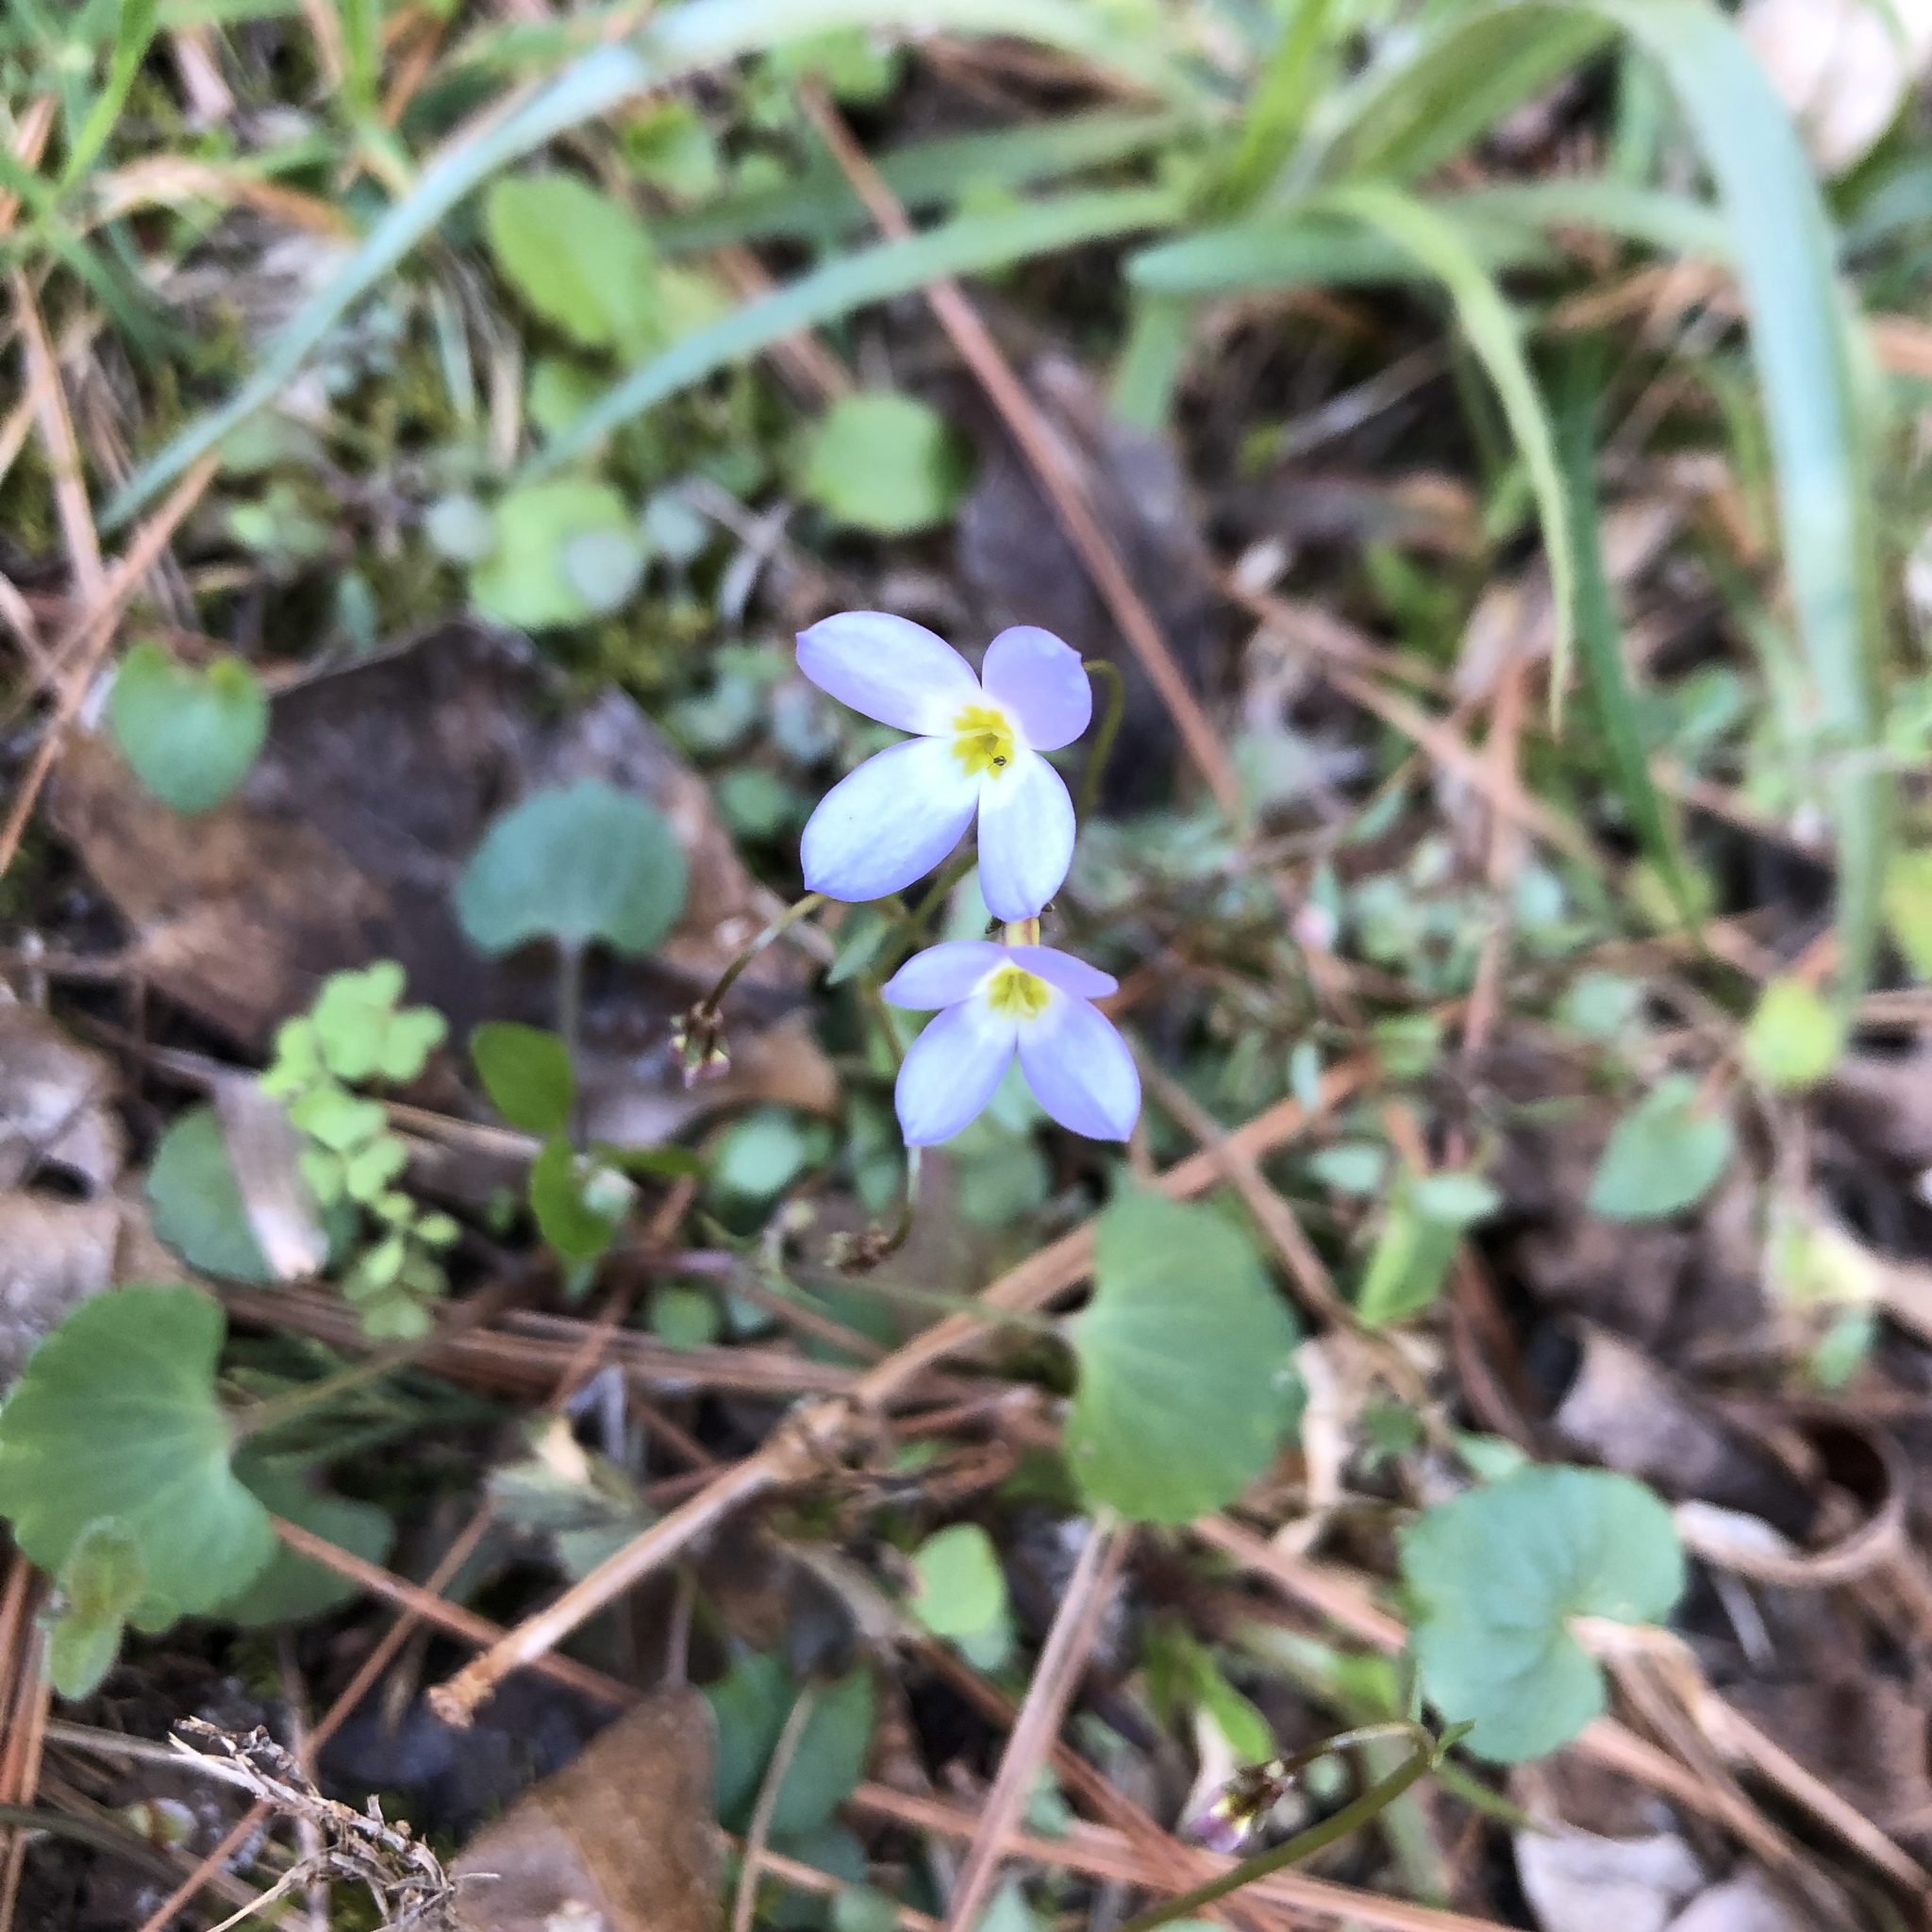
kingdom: Plantae
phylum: Tracheophyta
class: Magnoliopsida
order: Gentianales
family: Rubiaceae
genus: Houstonia
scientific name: Houstonia caerulea
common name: Bluets
